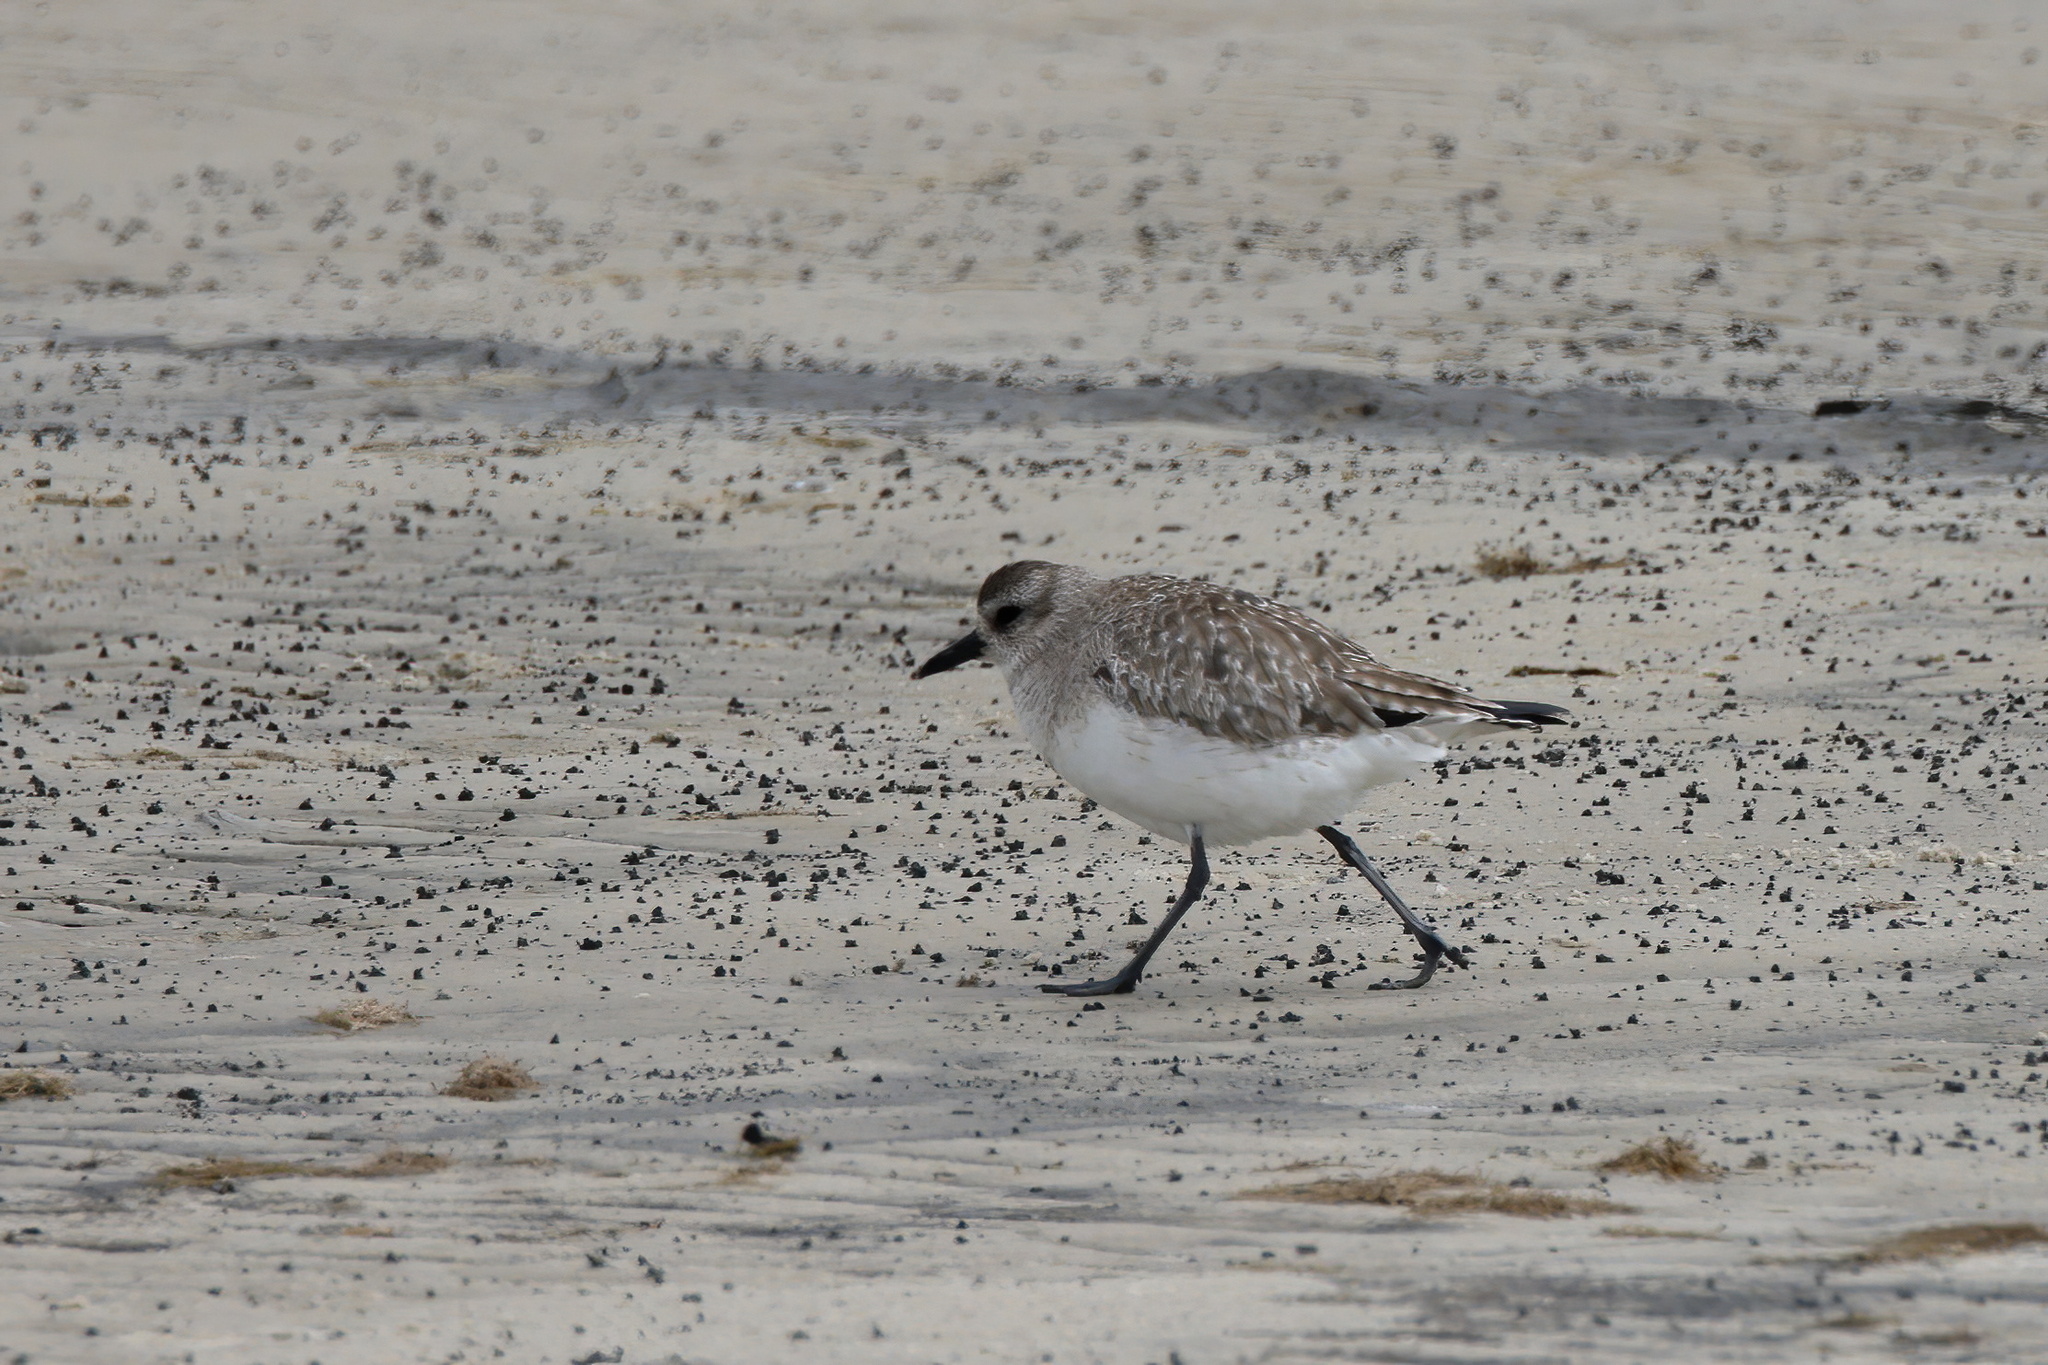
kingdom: Animalia
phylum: Chordata
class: Aves
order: Charadriiformes
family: Charadriidae
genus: Pluvialis
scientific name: Pluvialis squatarola
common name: Grey plover
